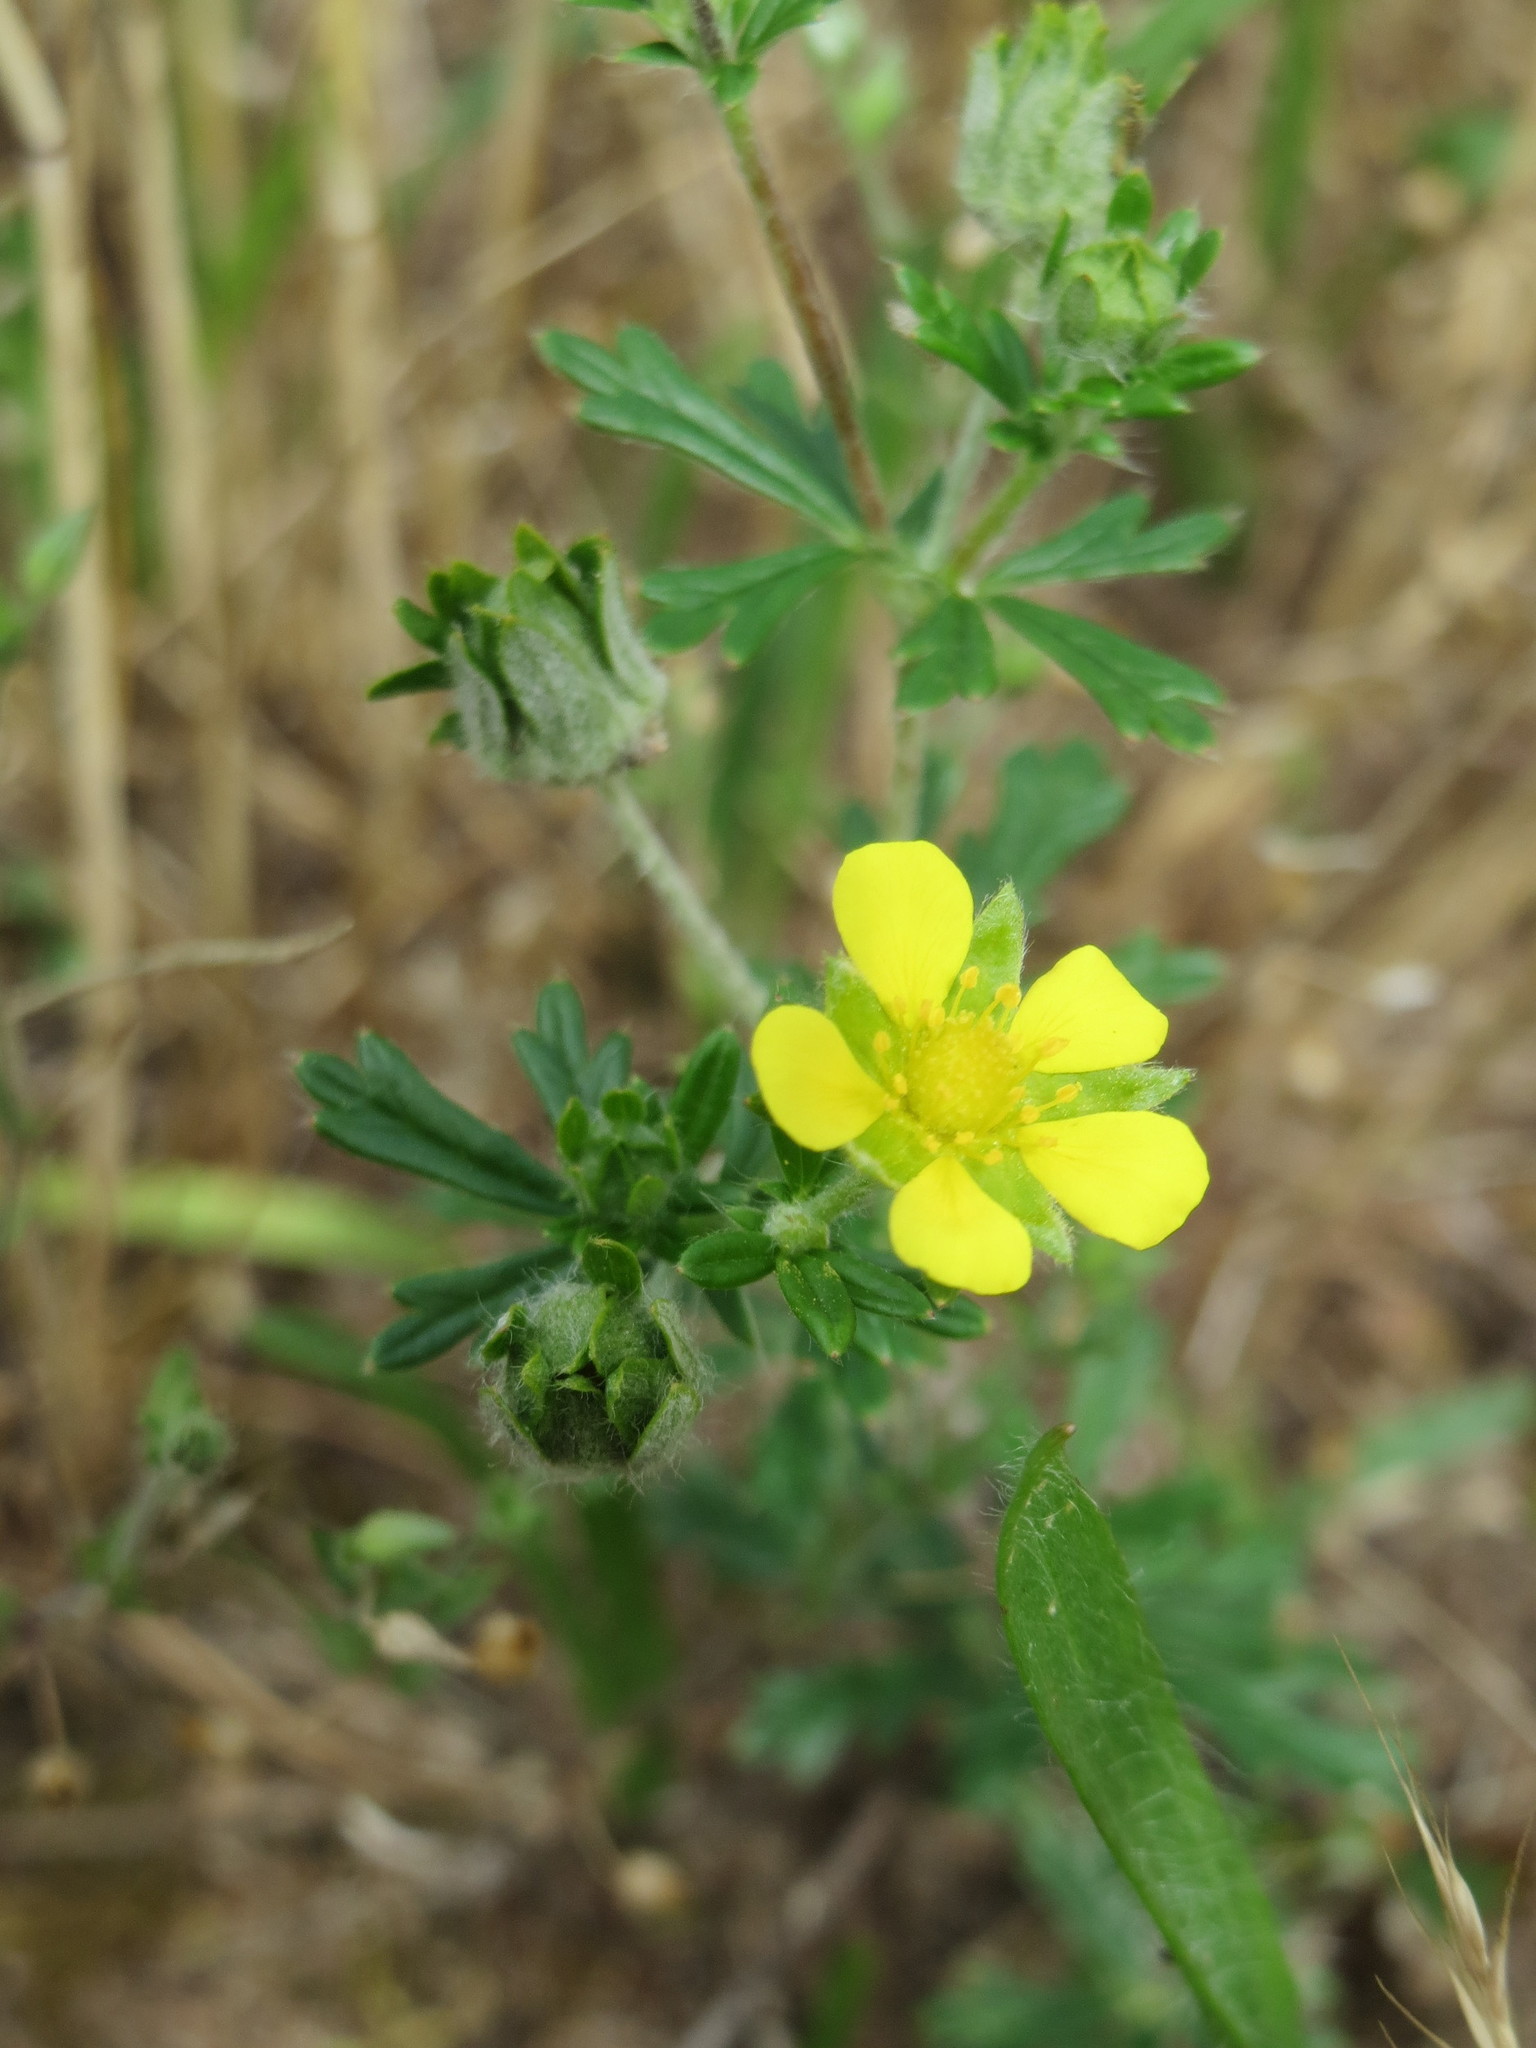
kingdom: Plantae
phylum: Tracheophyta
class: Magnoliopsida
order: Rosales
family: Rosaceae
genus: Potentilla
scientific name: Potentilla argentea
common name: Hoary cinquefoil
